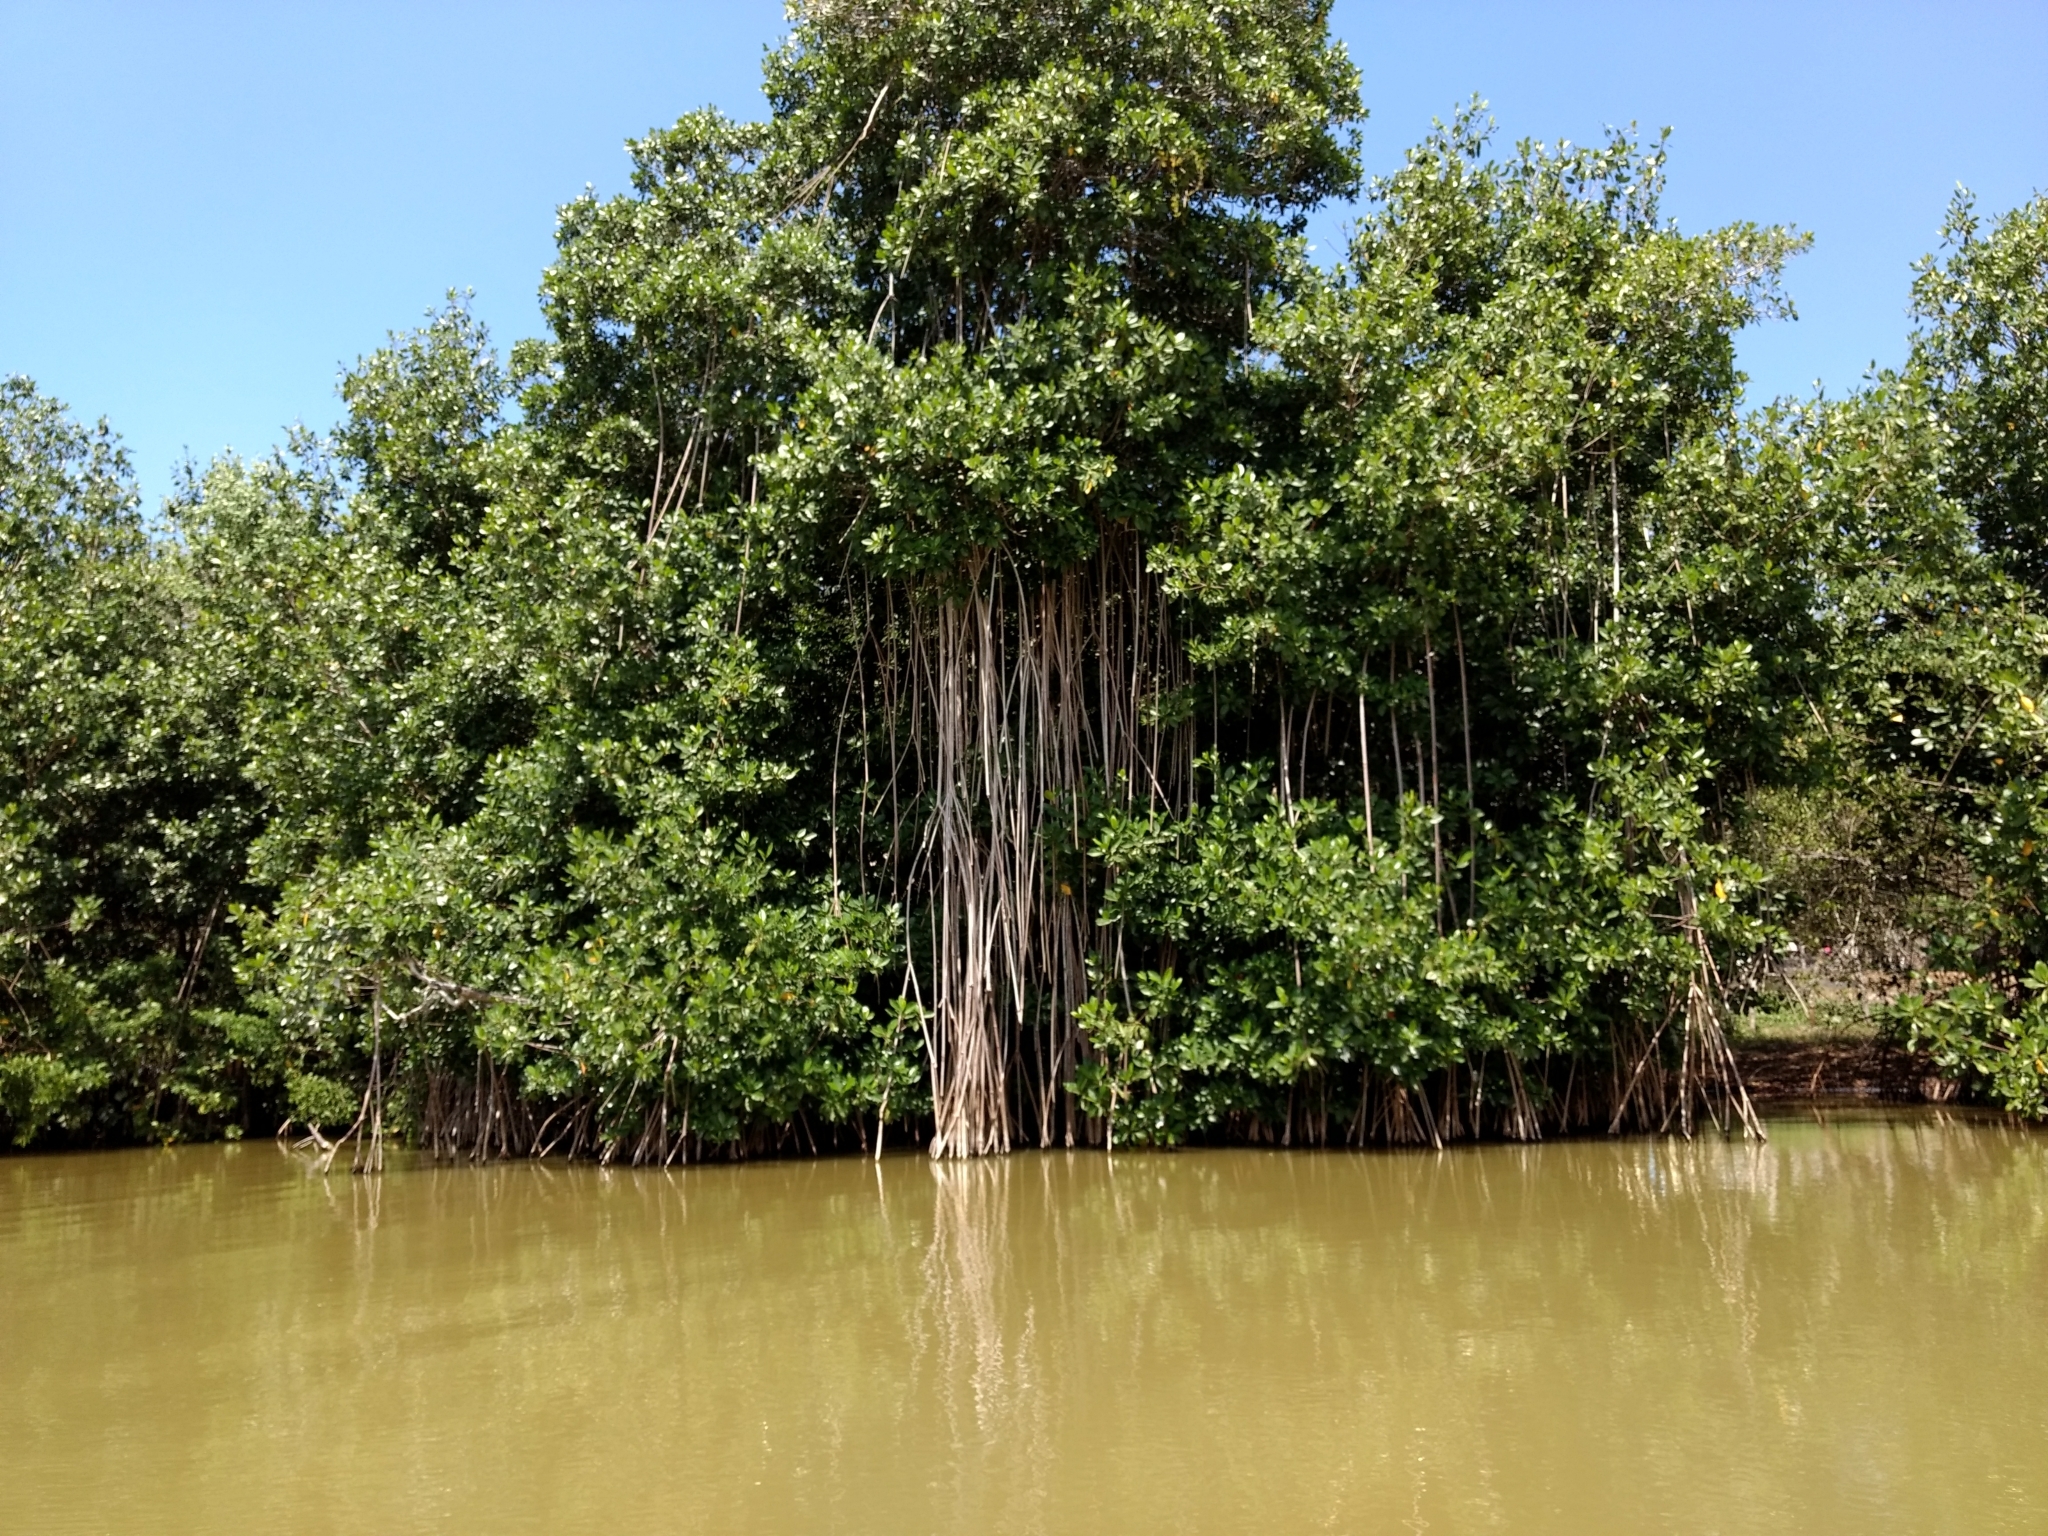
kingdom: Plantae
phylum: Tracheophyta
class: Magnoliopsida
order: Malpighiales
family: Rhizophoraceae
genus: Rhizophora
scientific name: Rhizophora mangle
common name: Red mangrove
